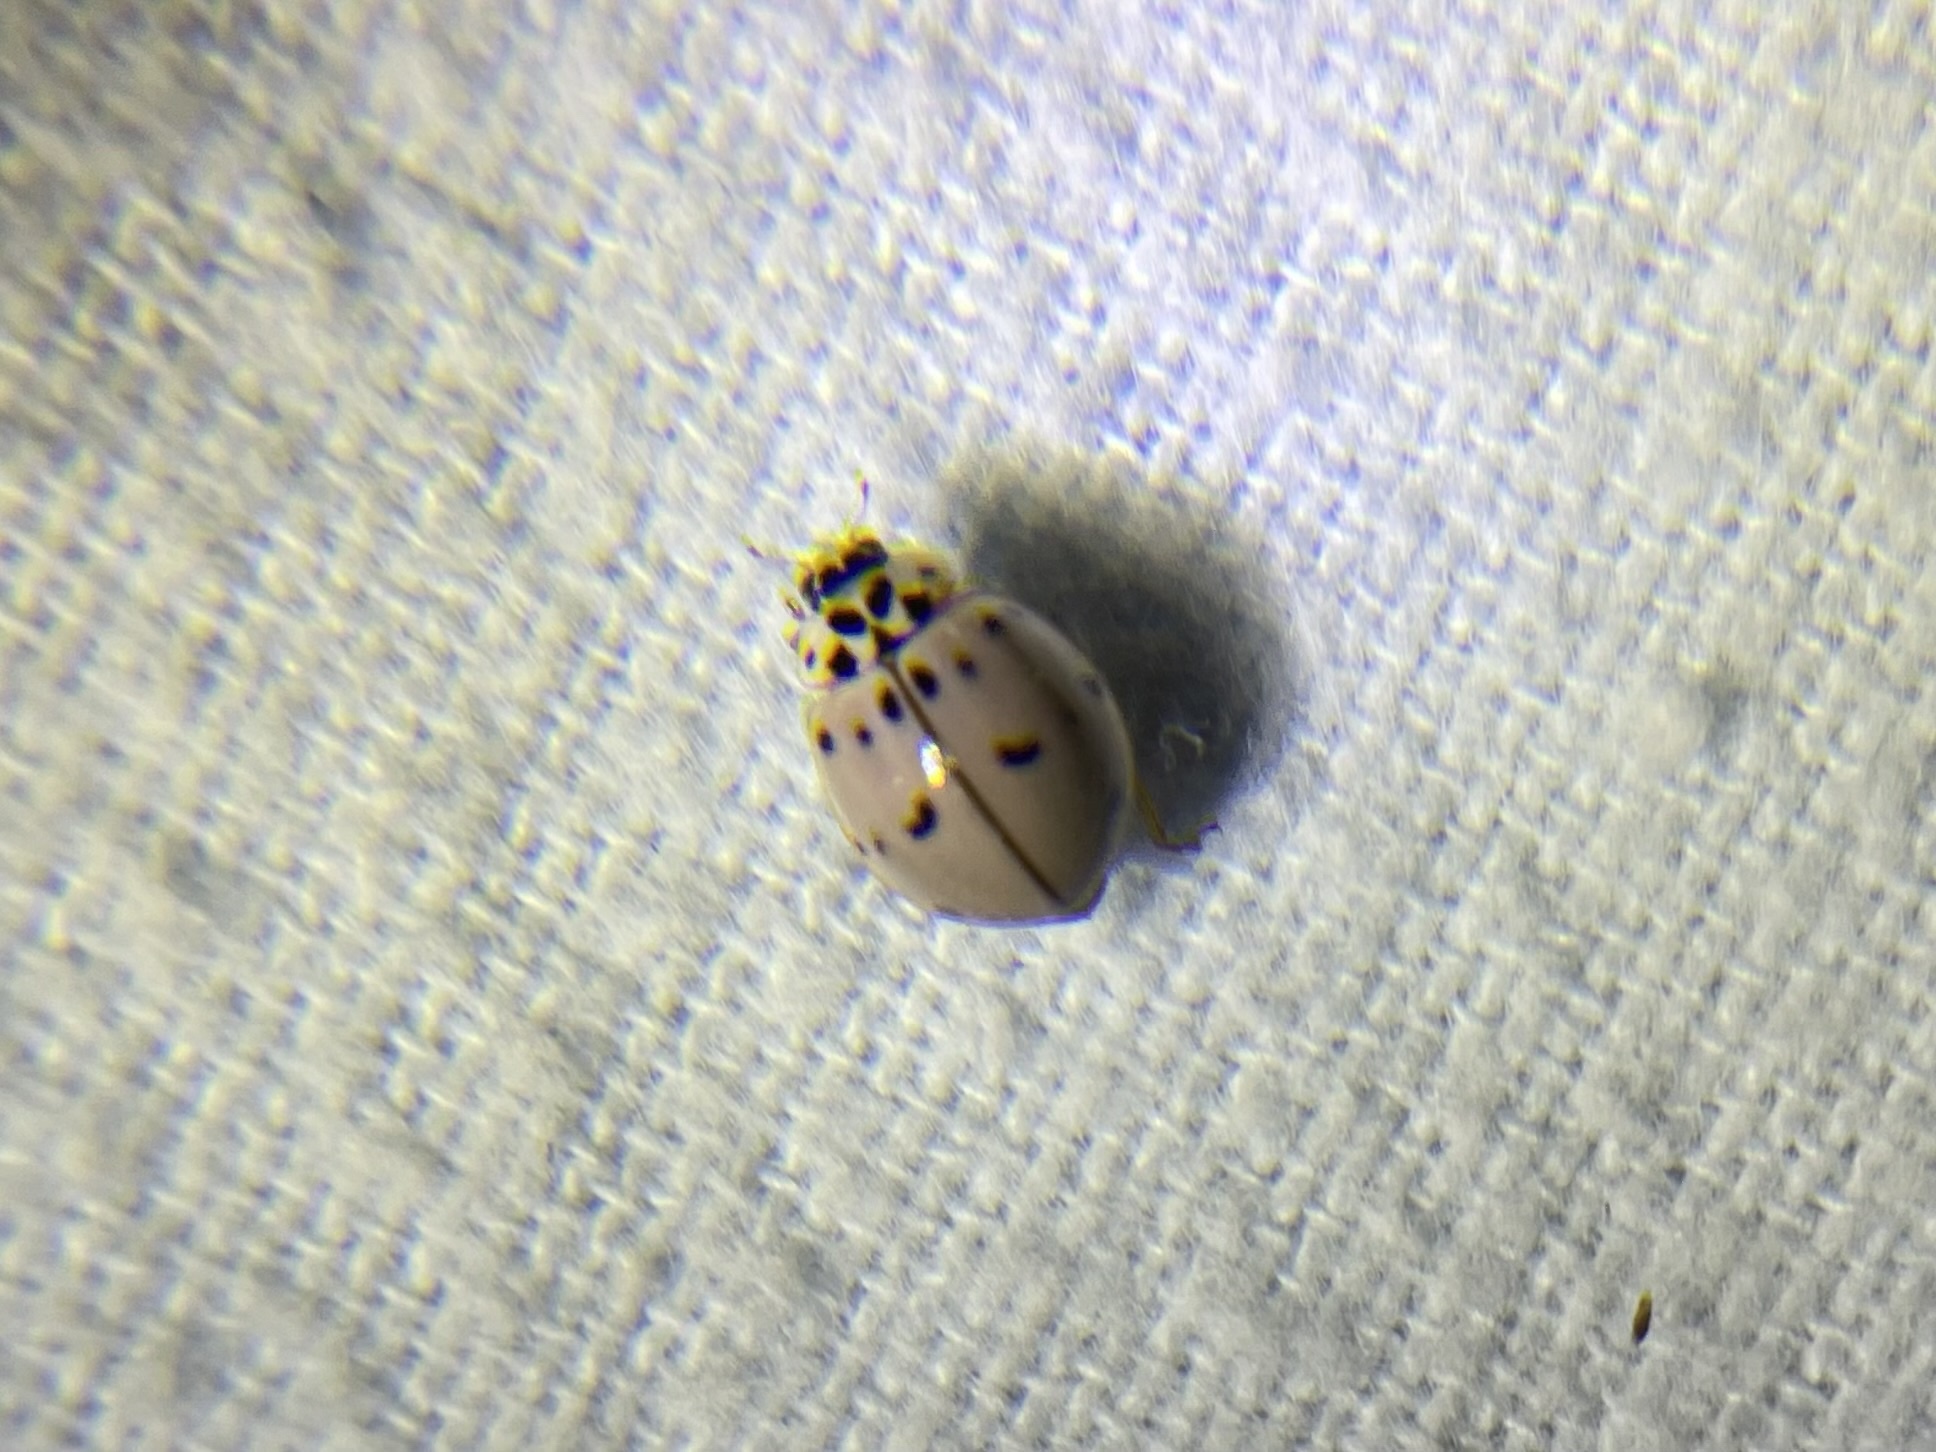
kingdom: Animalia
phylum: Arthropoda
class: Insecta
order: Coleoptera
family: Coccinellidae
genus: Olla
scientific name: Olla v-nigrum
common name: Ashy gray lady beetle
